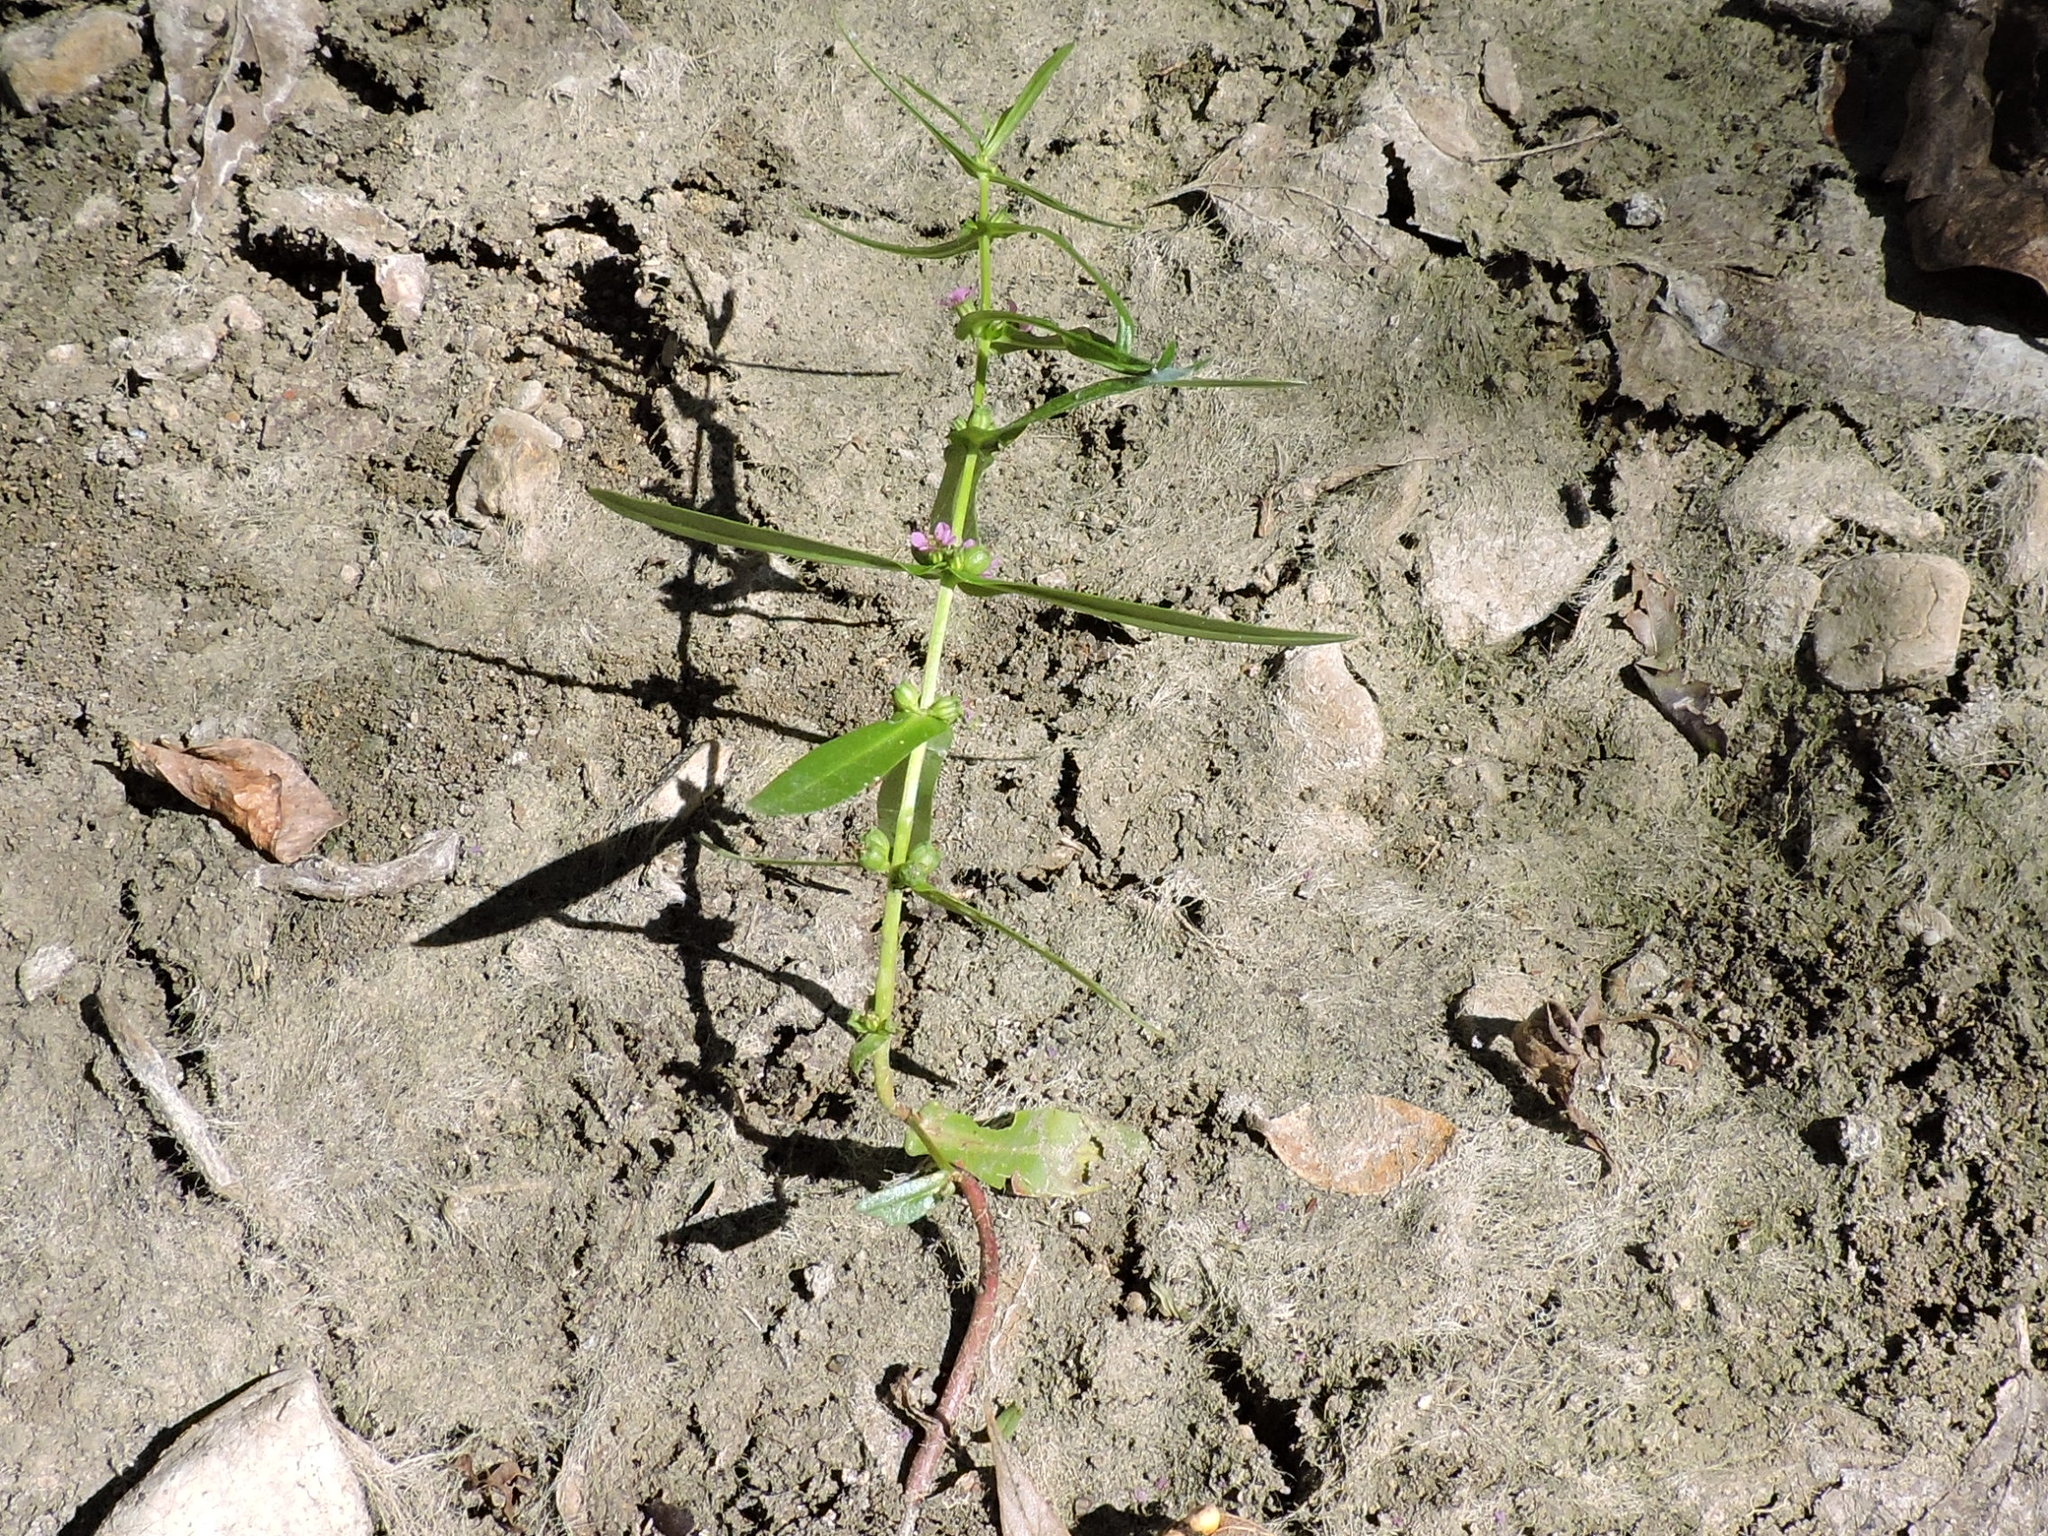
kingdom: Plantae
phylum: Tracheophyta
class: Magnoliopsida
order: Myrtales
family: Lythraceae
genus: Ammannia
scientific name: Ammannia coccinea
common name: Valley redstem
